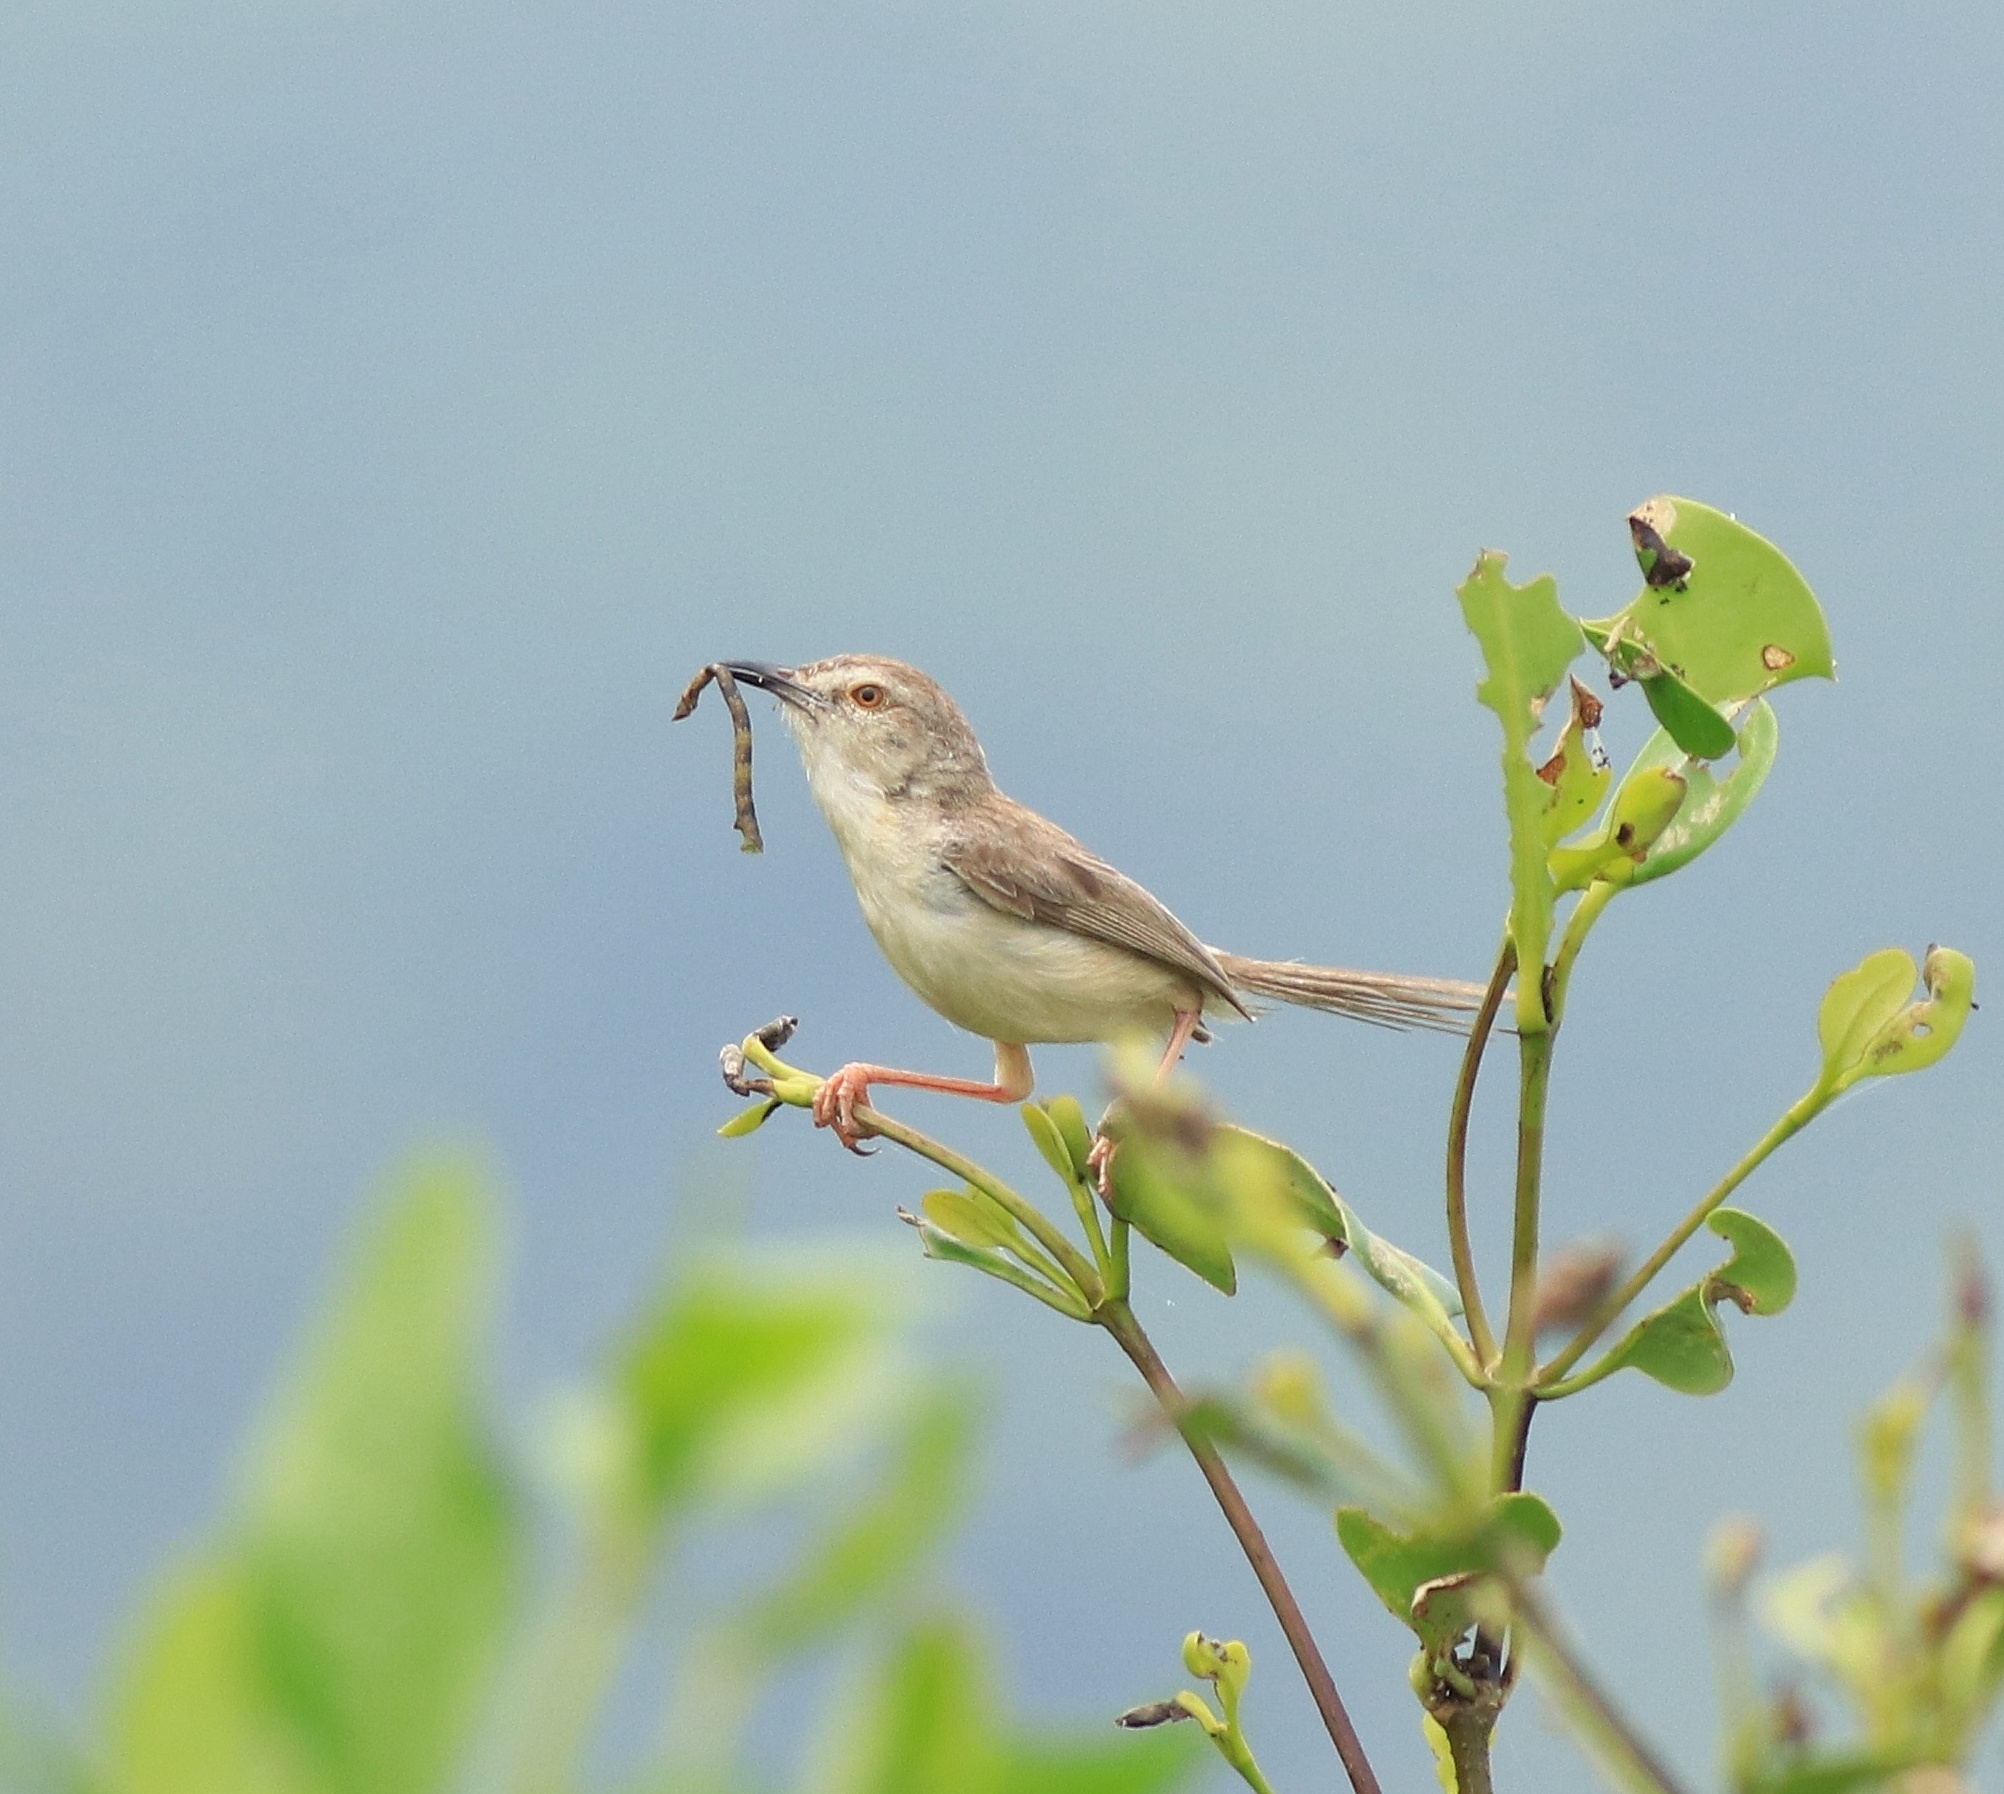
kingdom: Animalia
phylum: Chordata
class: Aves
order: Passeriformes
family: Cisticolidae
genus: Prinia
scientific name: Prinia inornata
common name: Plain prinia
